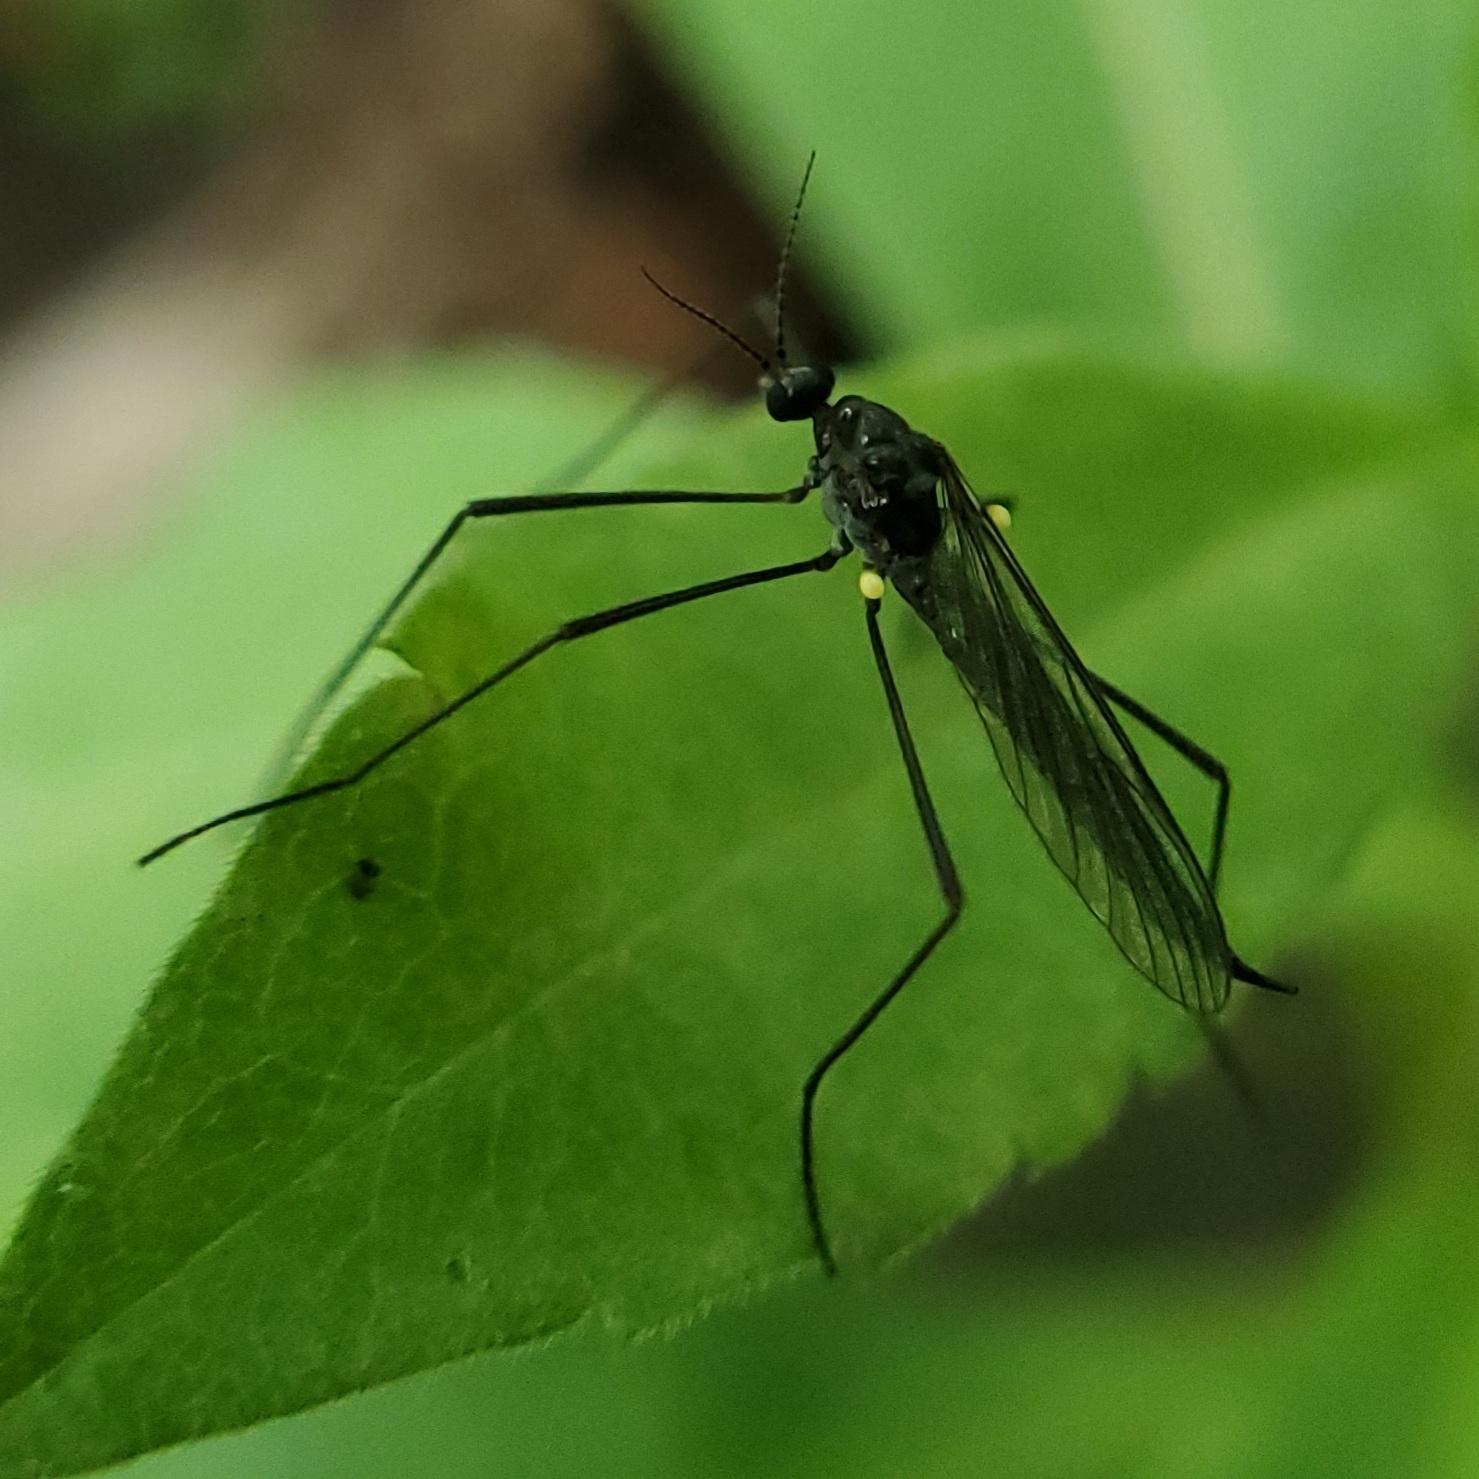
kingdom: Animalia
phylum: Arthropoda
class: Insecta
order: Diptera
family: Limoniidae
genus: Gnophomyia
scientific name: Gnophomyia tristissima
